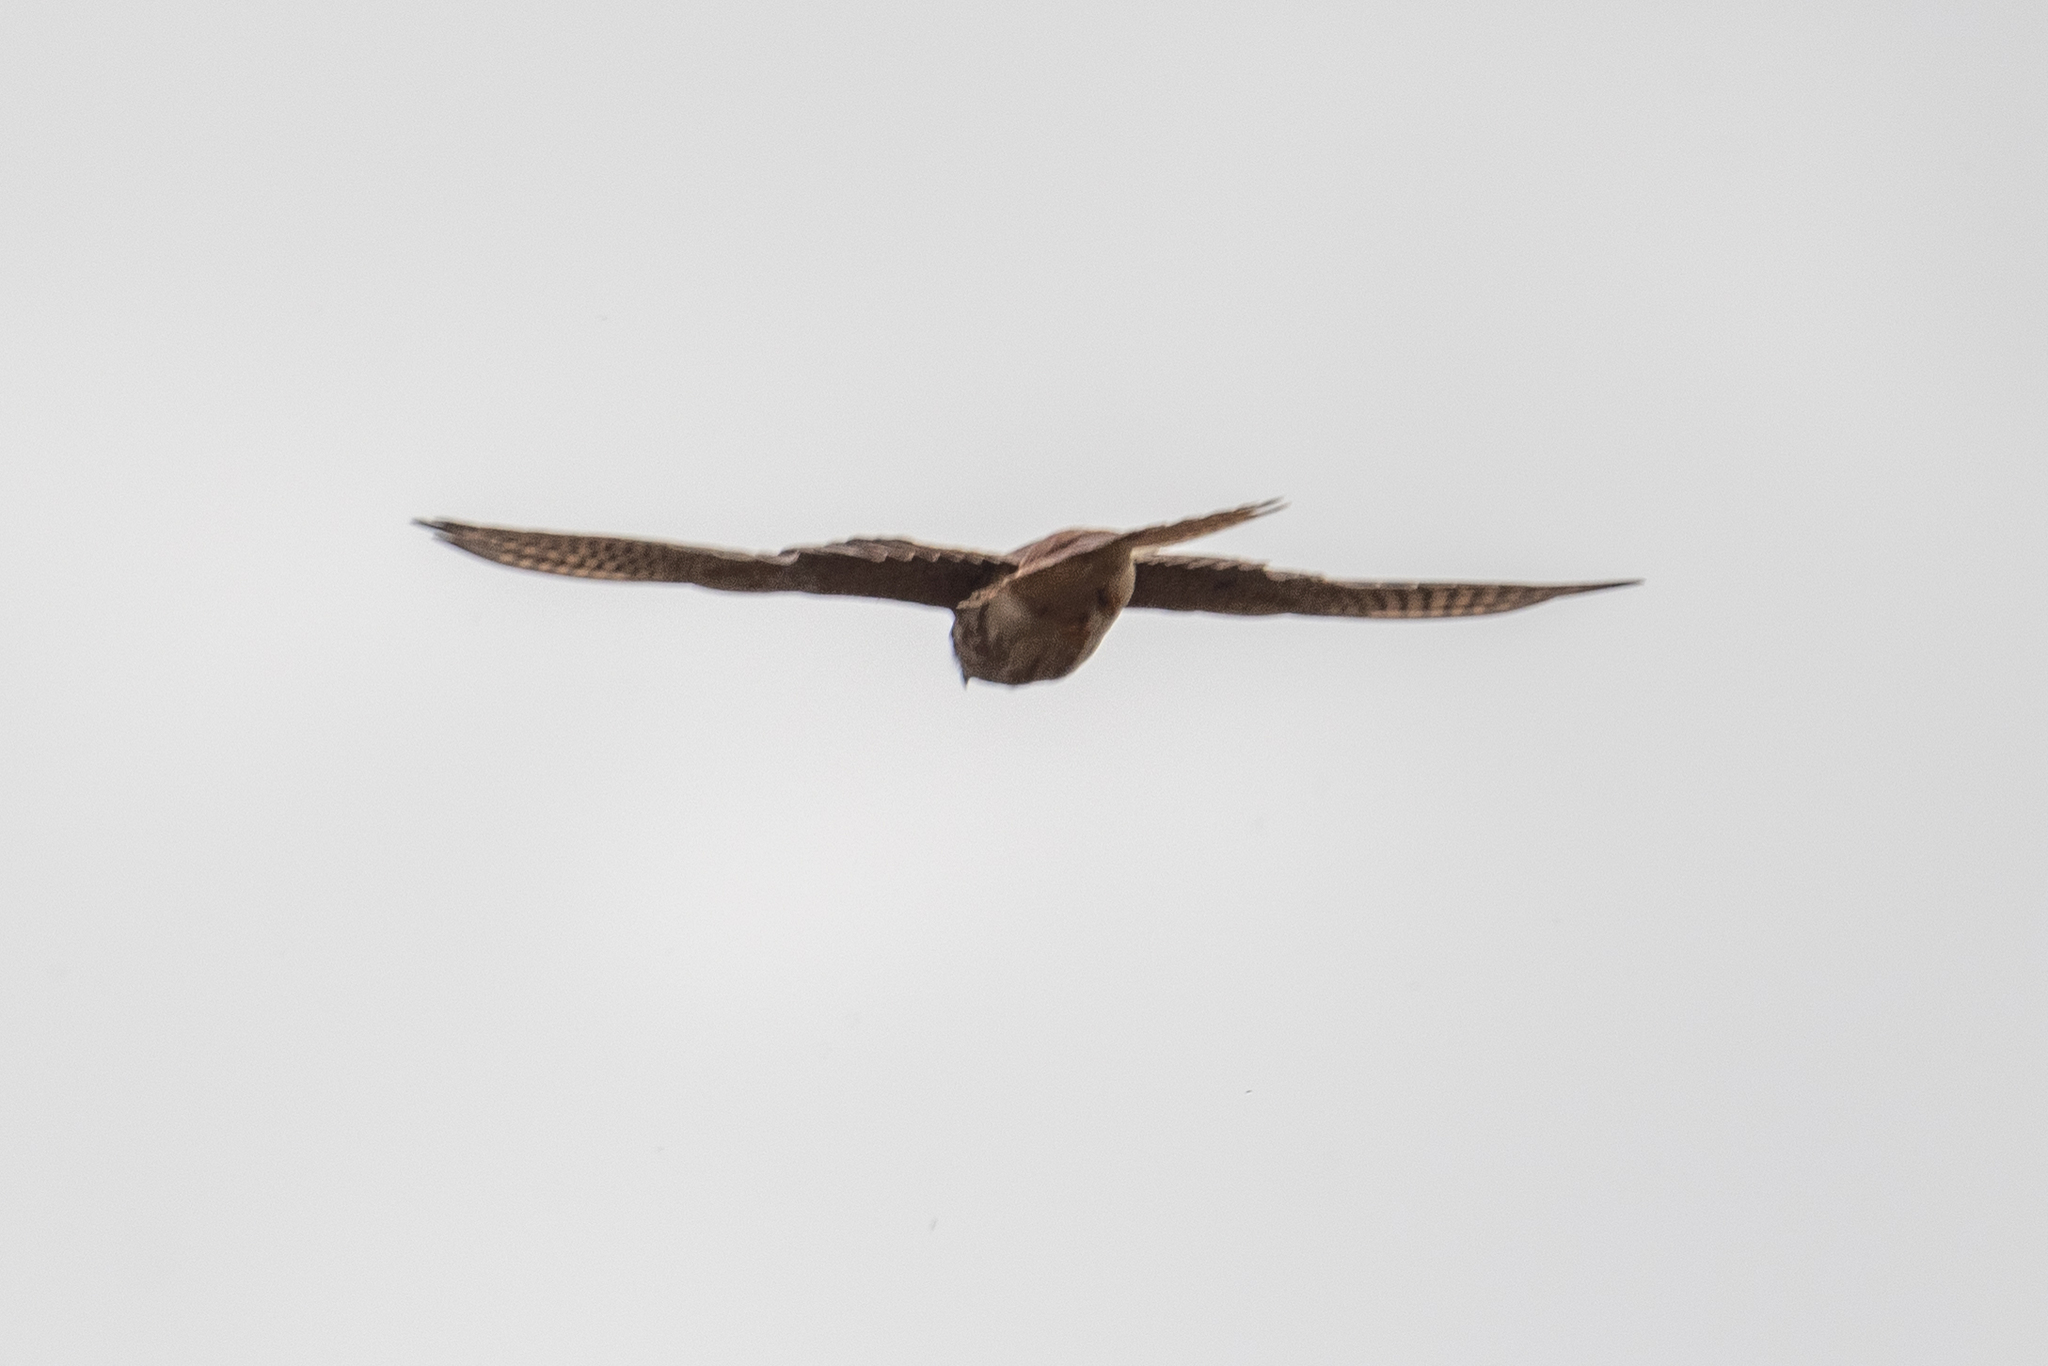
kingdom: Animalia
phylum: Chordata
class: Aves
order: Falconiformes
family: Falconidae
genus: Falco
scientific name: Falco sparverius
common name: American kestrel
